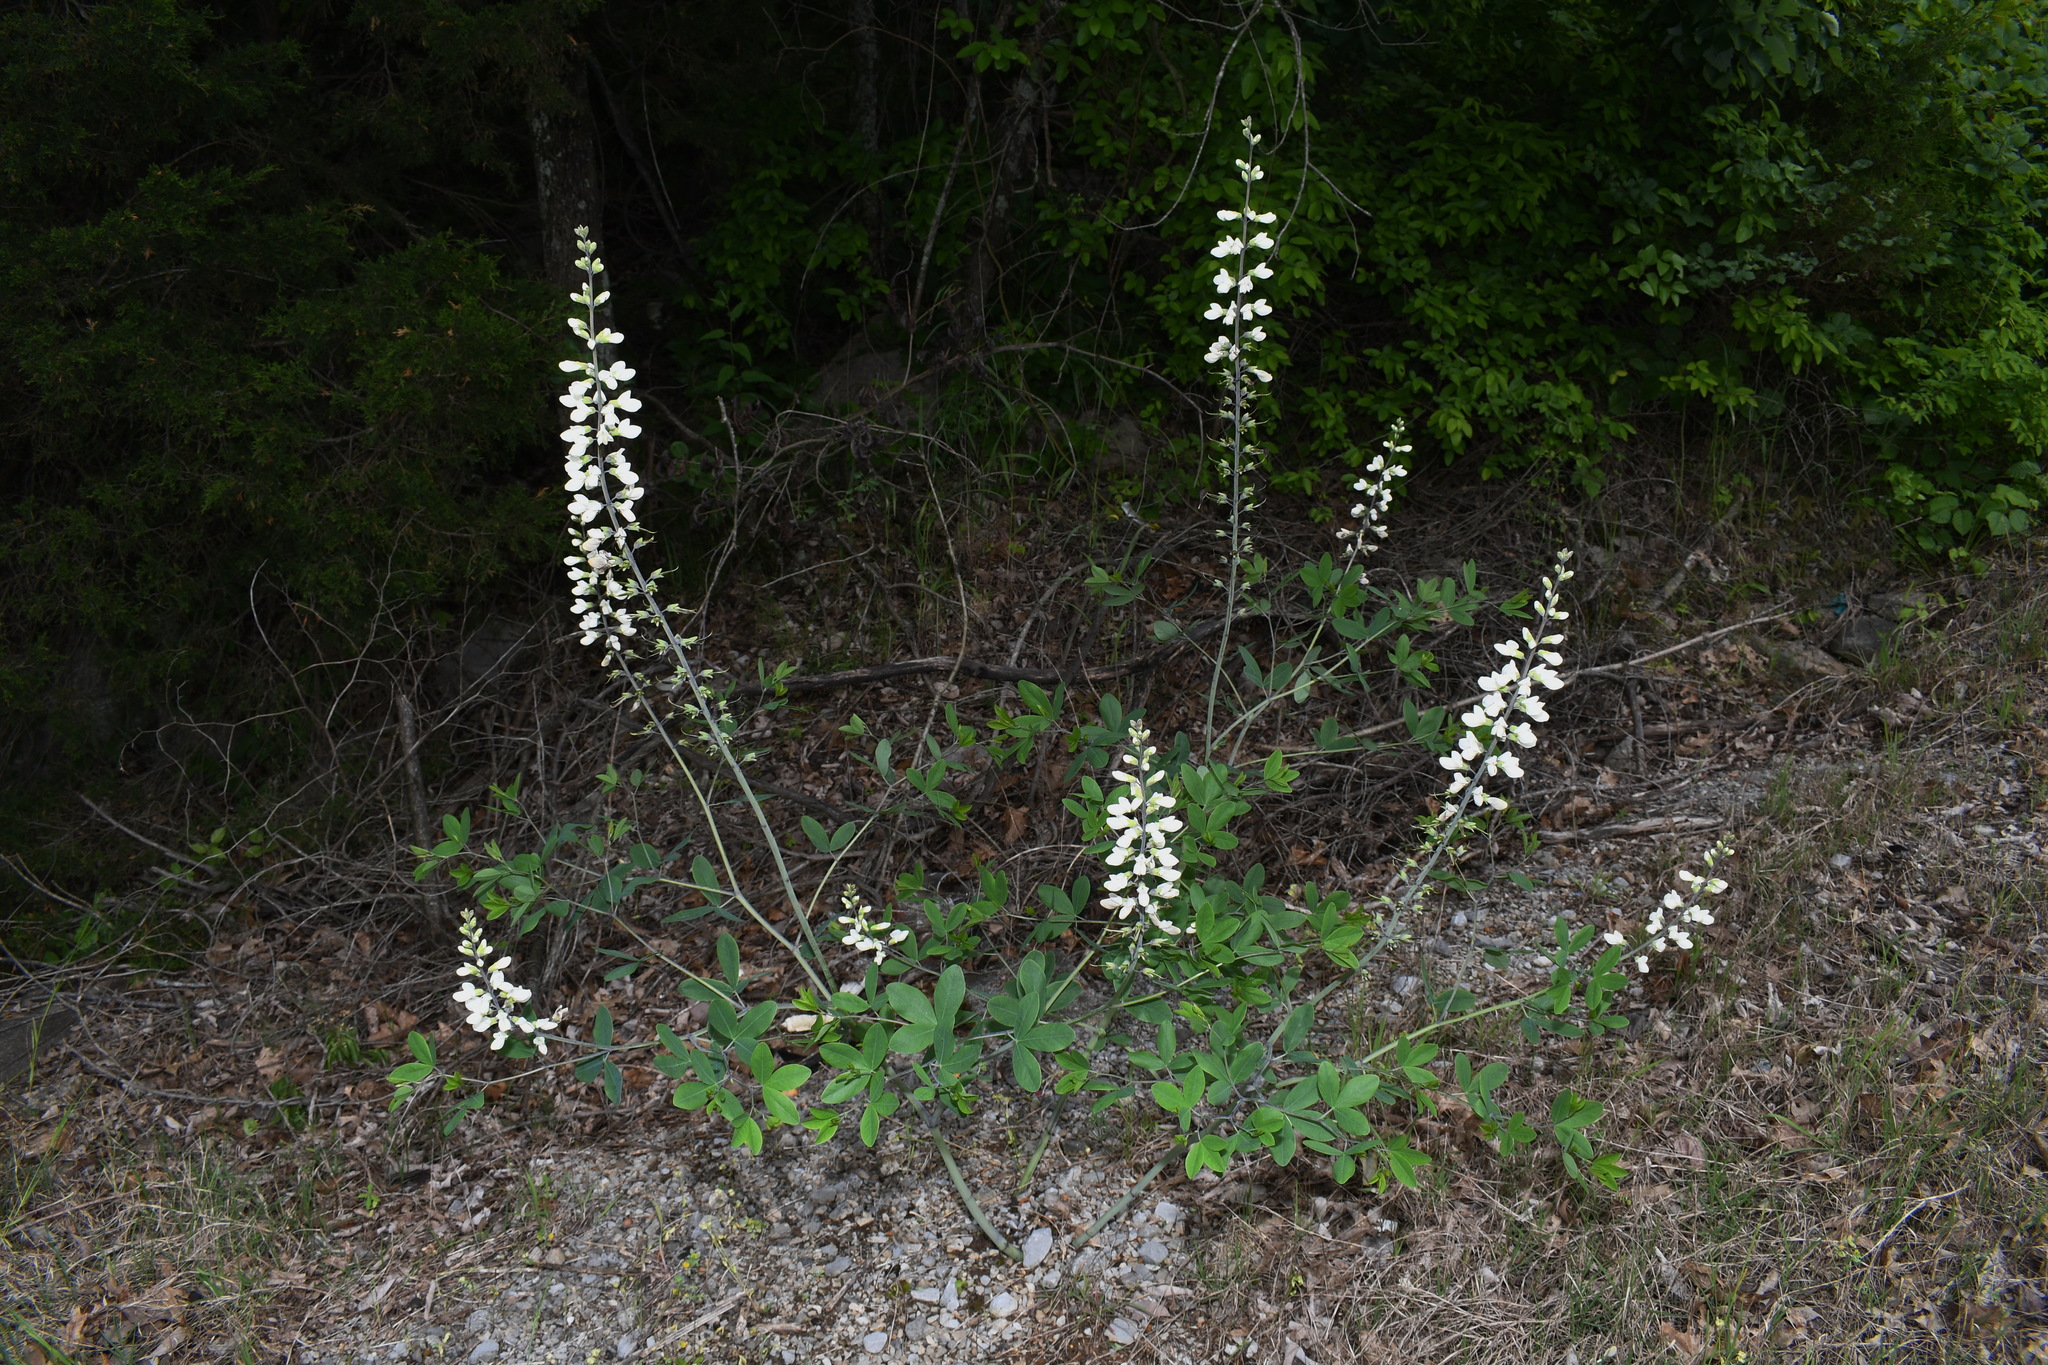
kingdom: Plantae
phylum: Tracheophyta
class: Magnoliopsida
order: Fabales
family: Fabaceae
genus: Baptisia
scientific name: Baptisia alba
